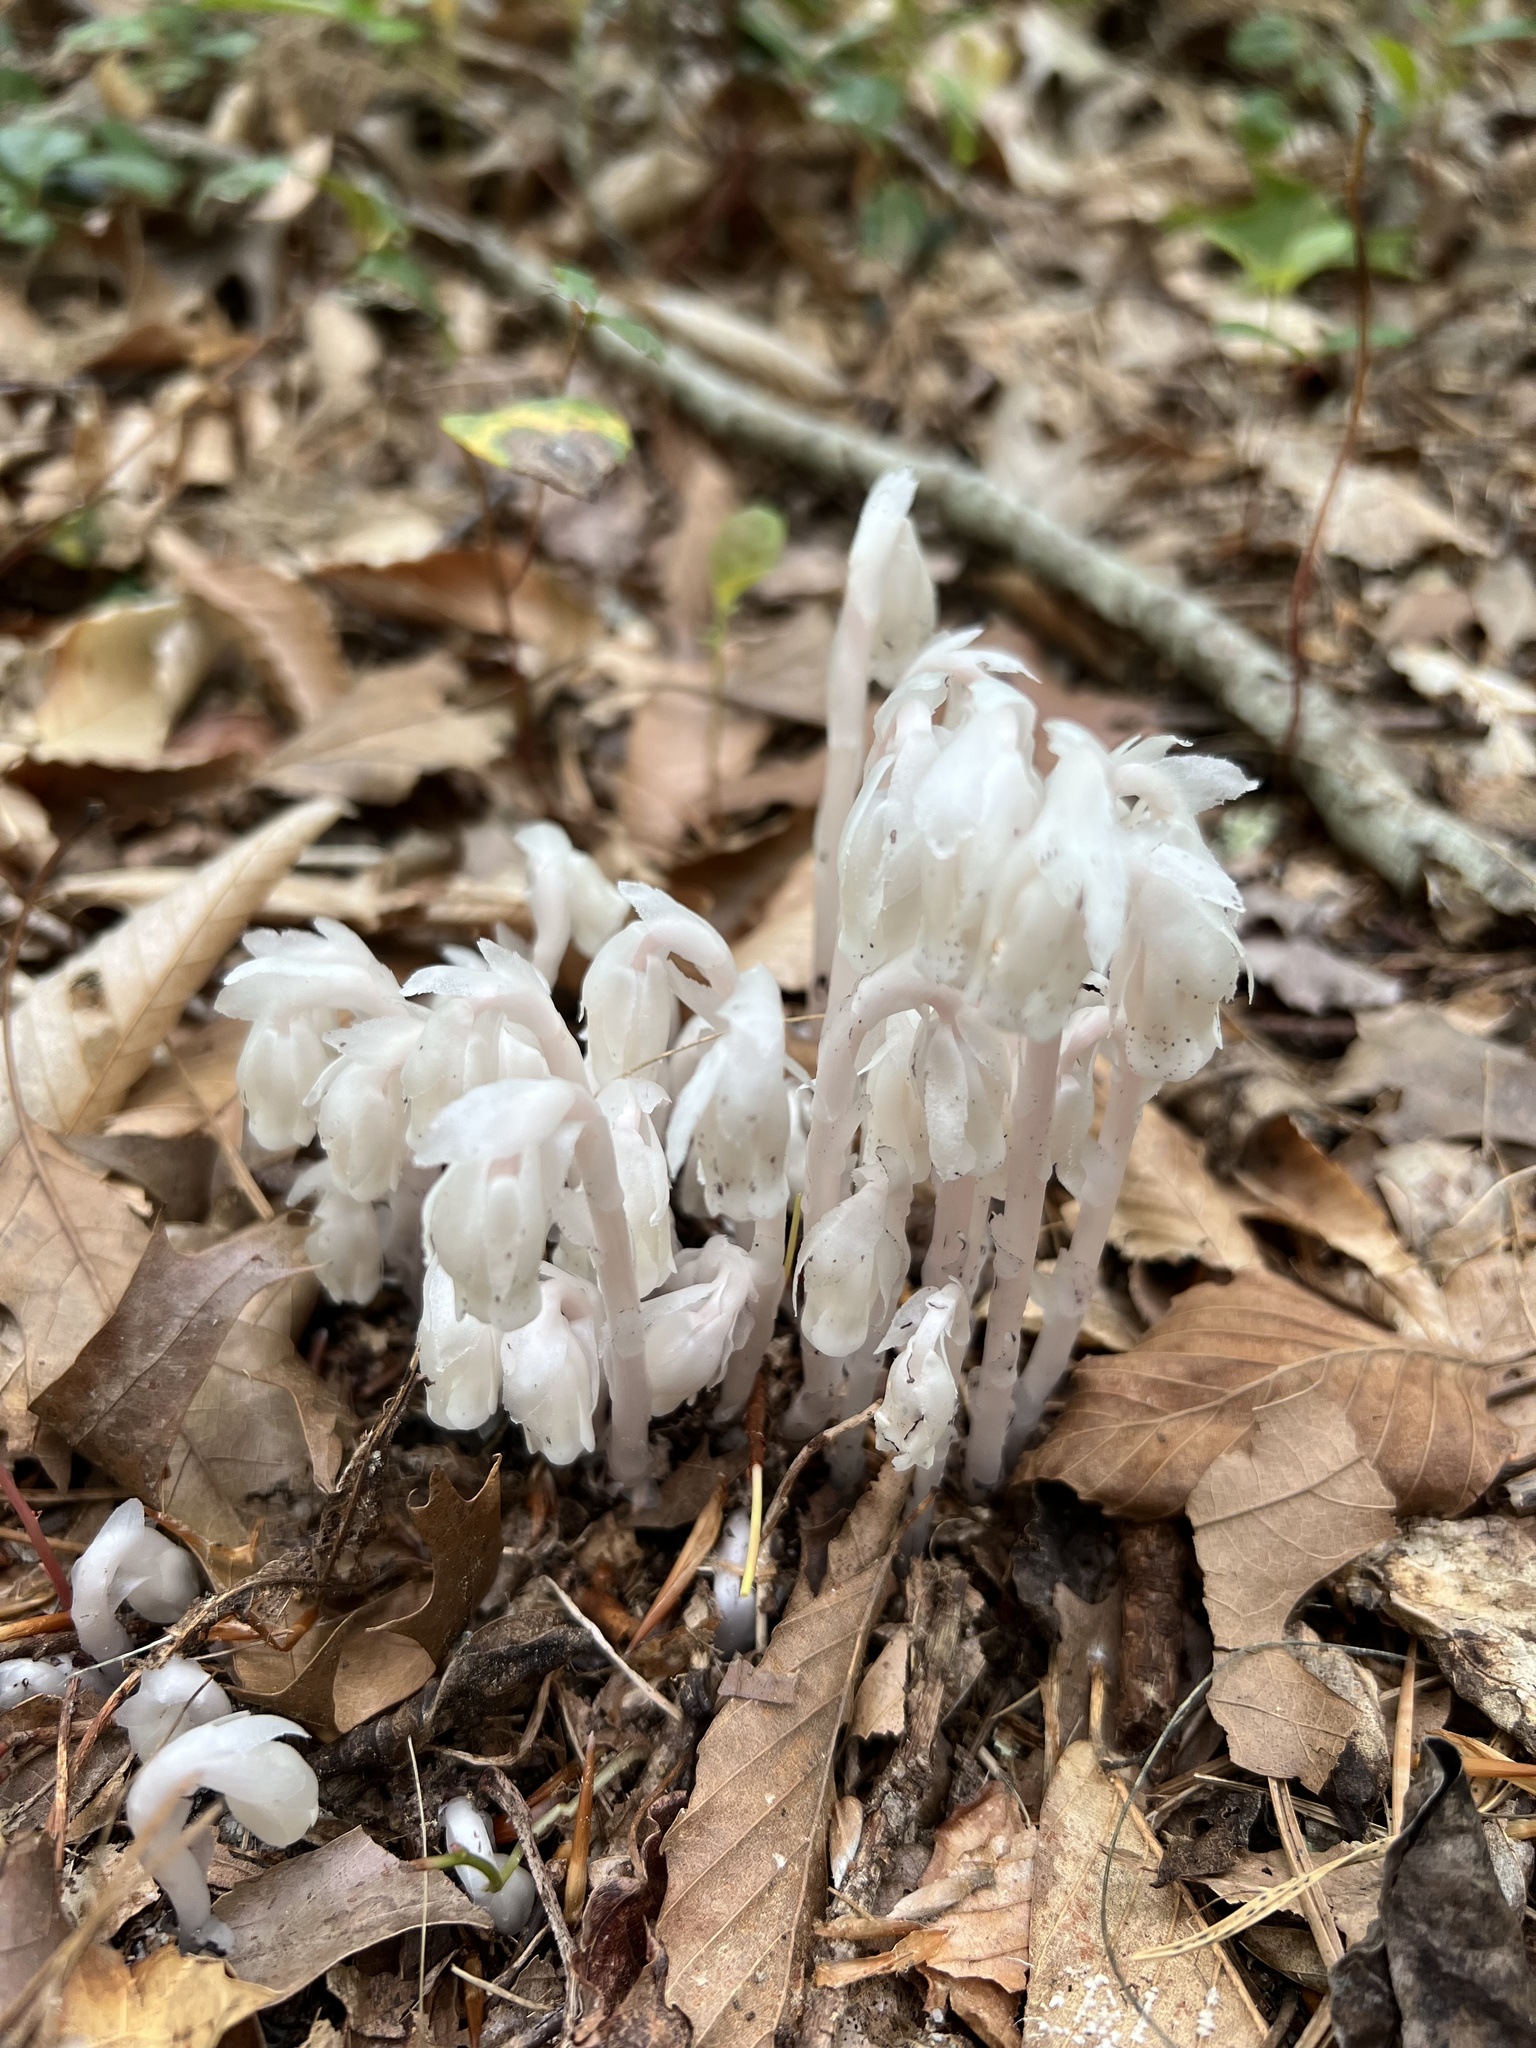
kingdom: Plantae
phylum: Tracheophyta
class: Magnoliopsida
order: Ericales
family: Ericaceae
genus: Monotropa
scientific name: Monotropa uniflora
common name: Convulsion root
